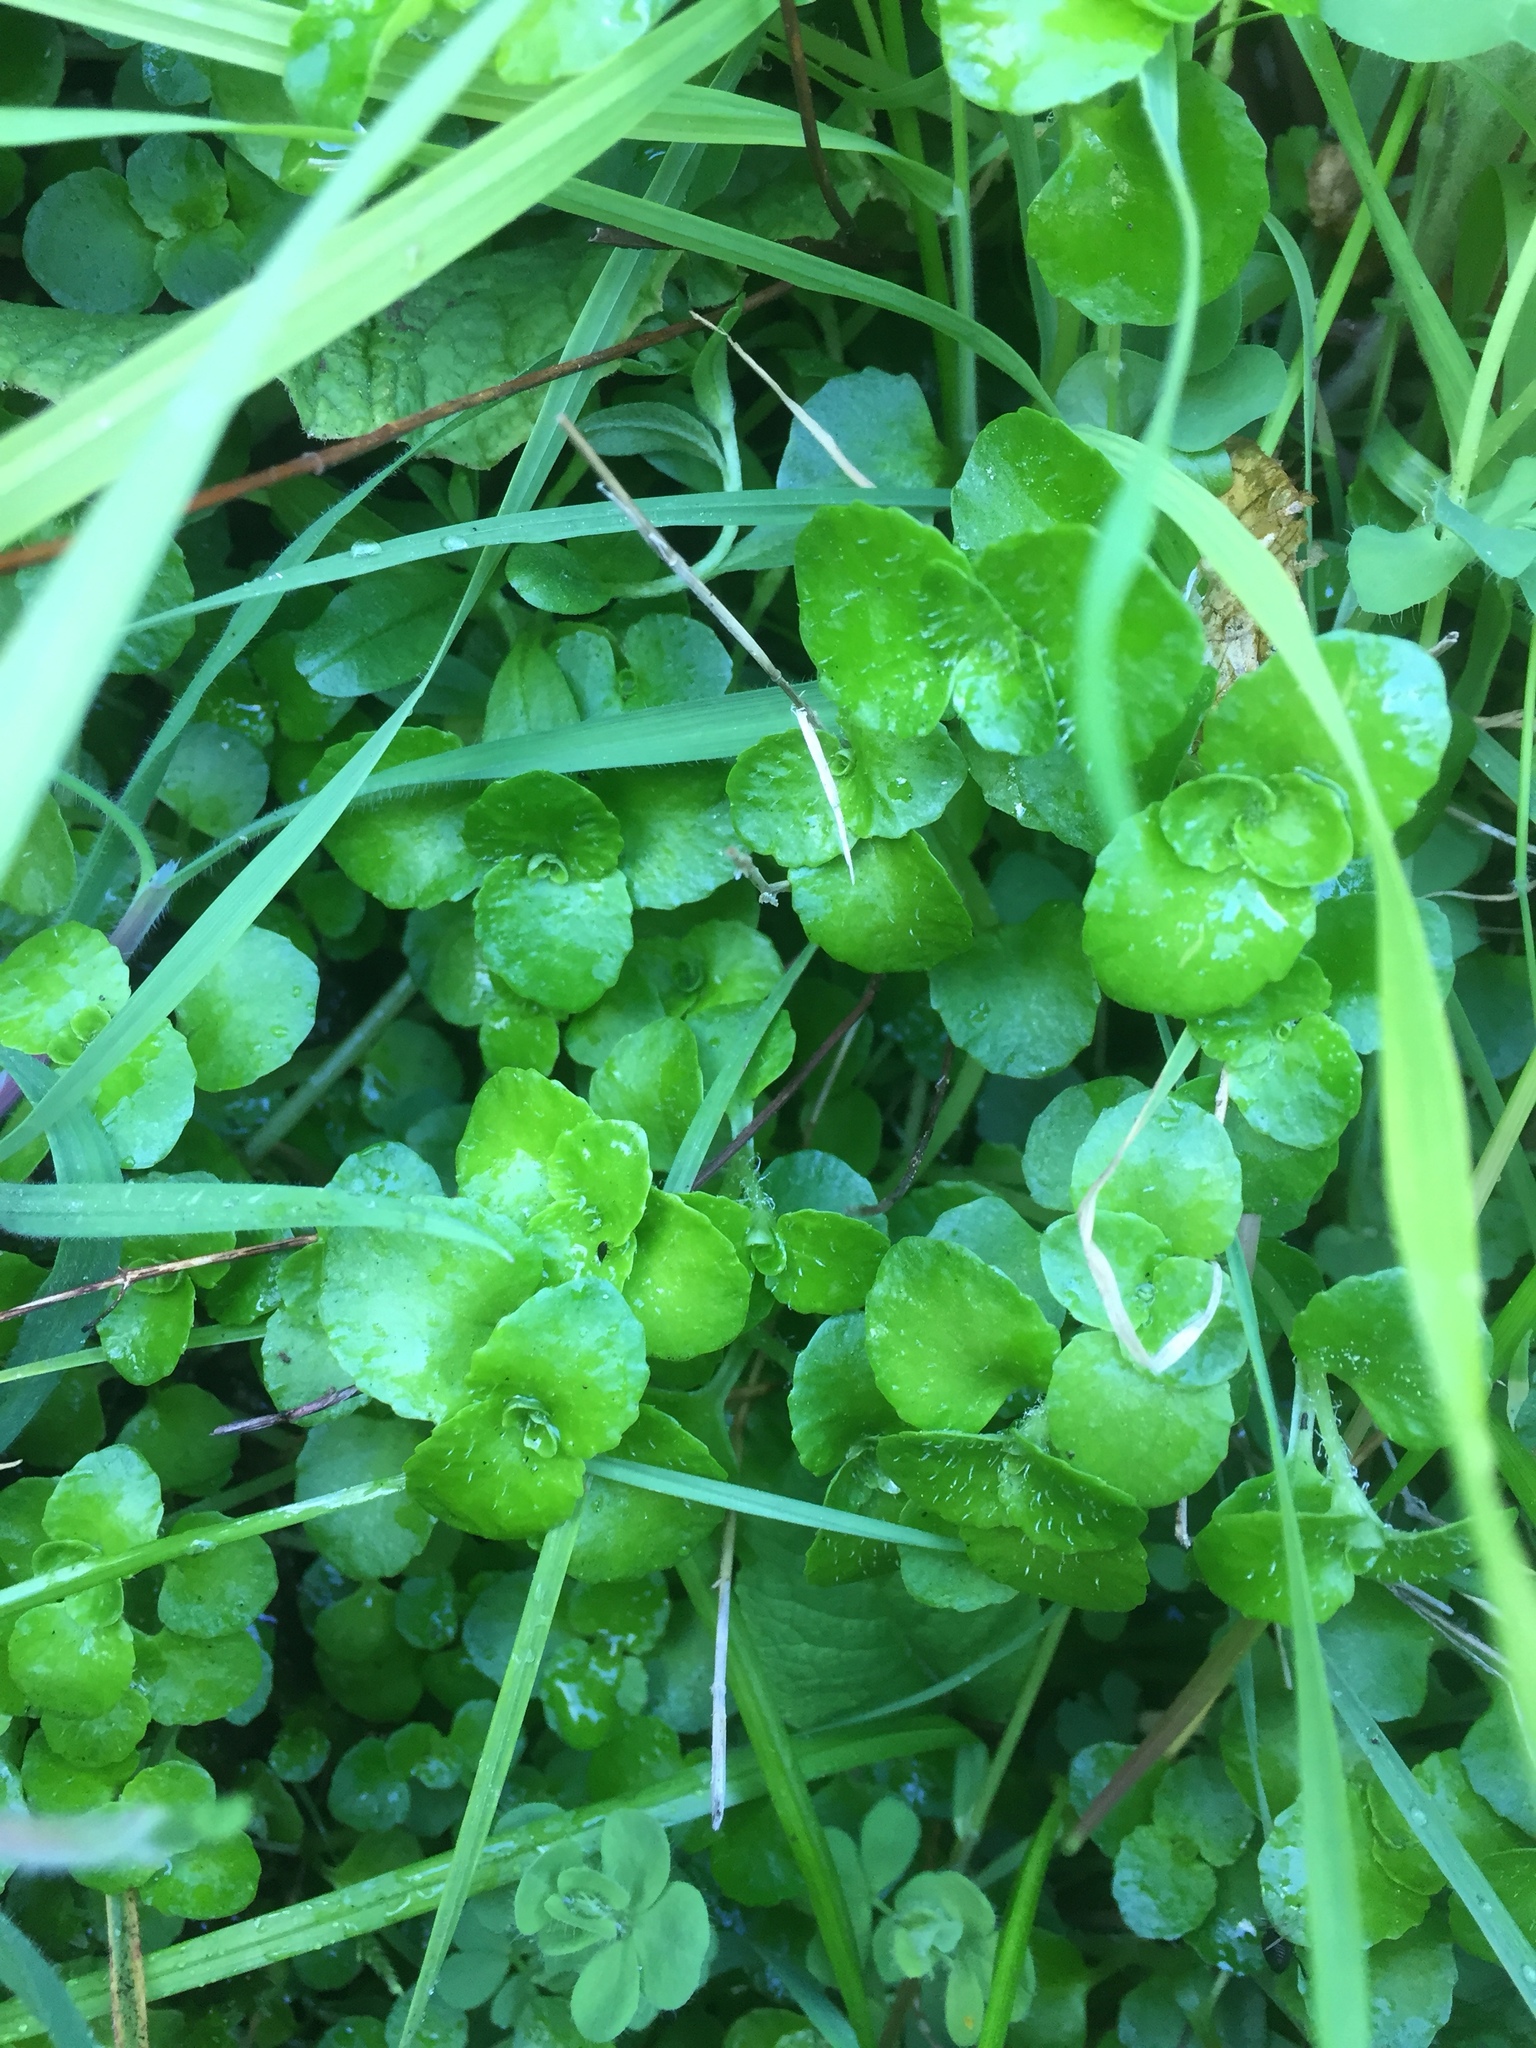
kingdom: Plantae
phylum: Tracheophyta
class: Magnoliopsida
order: Saxifragales
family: Saxifragaceae
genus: Chrysosplenium
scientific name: Chrysosplenium oppositifolium
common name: Opposite-leaved golden-saxifrage
